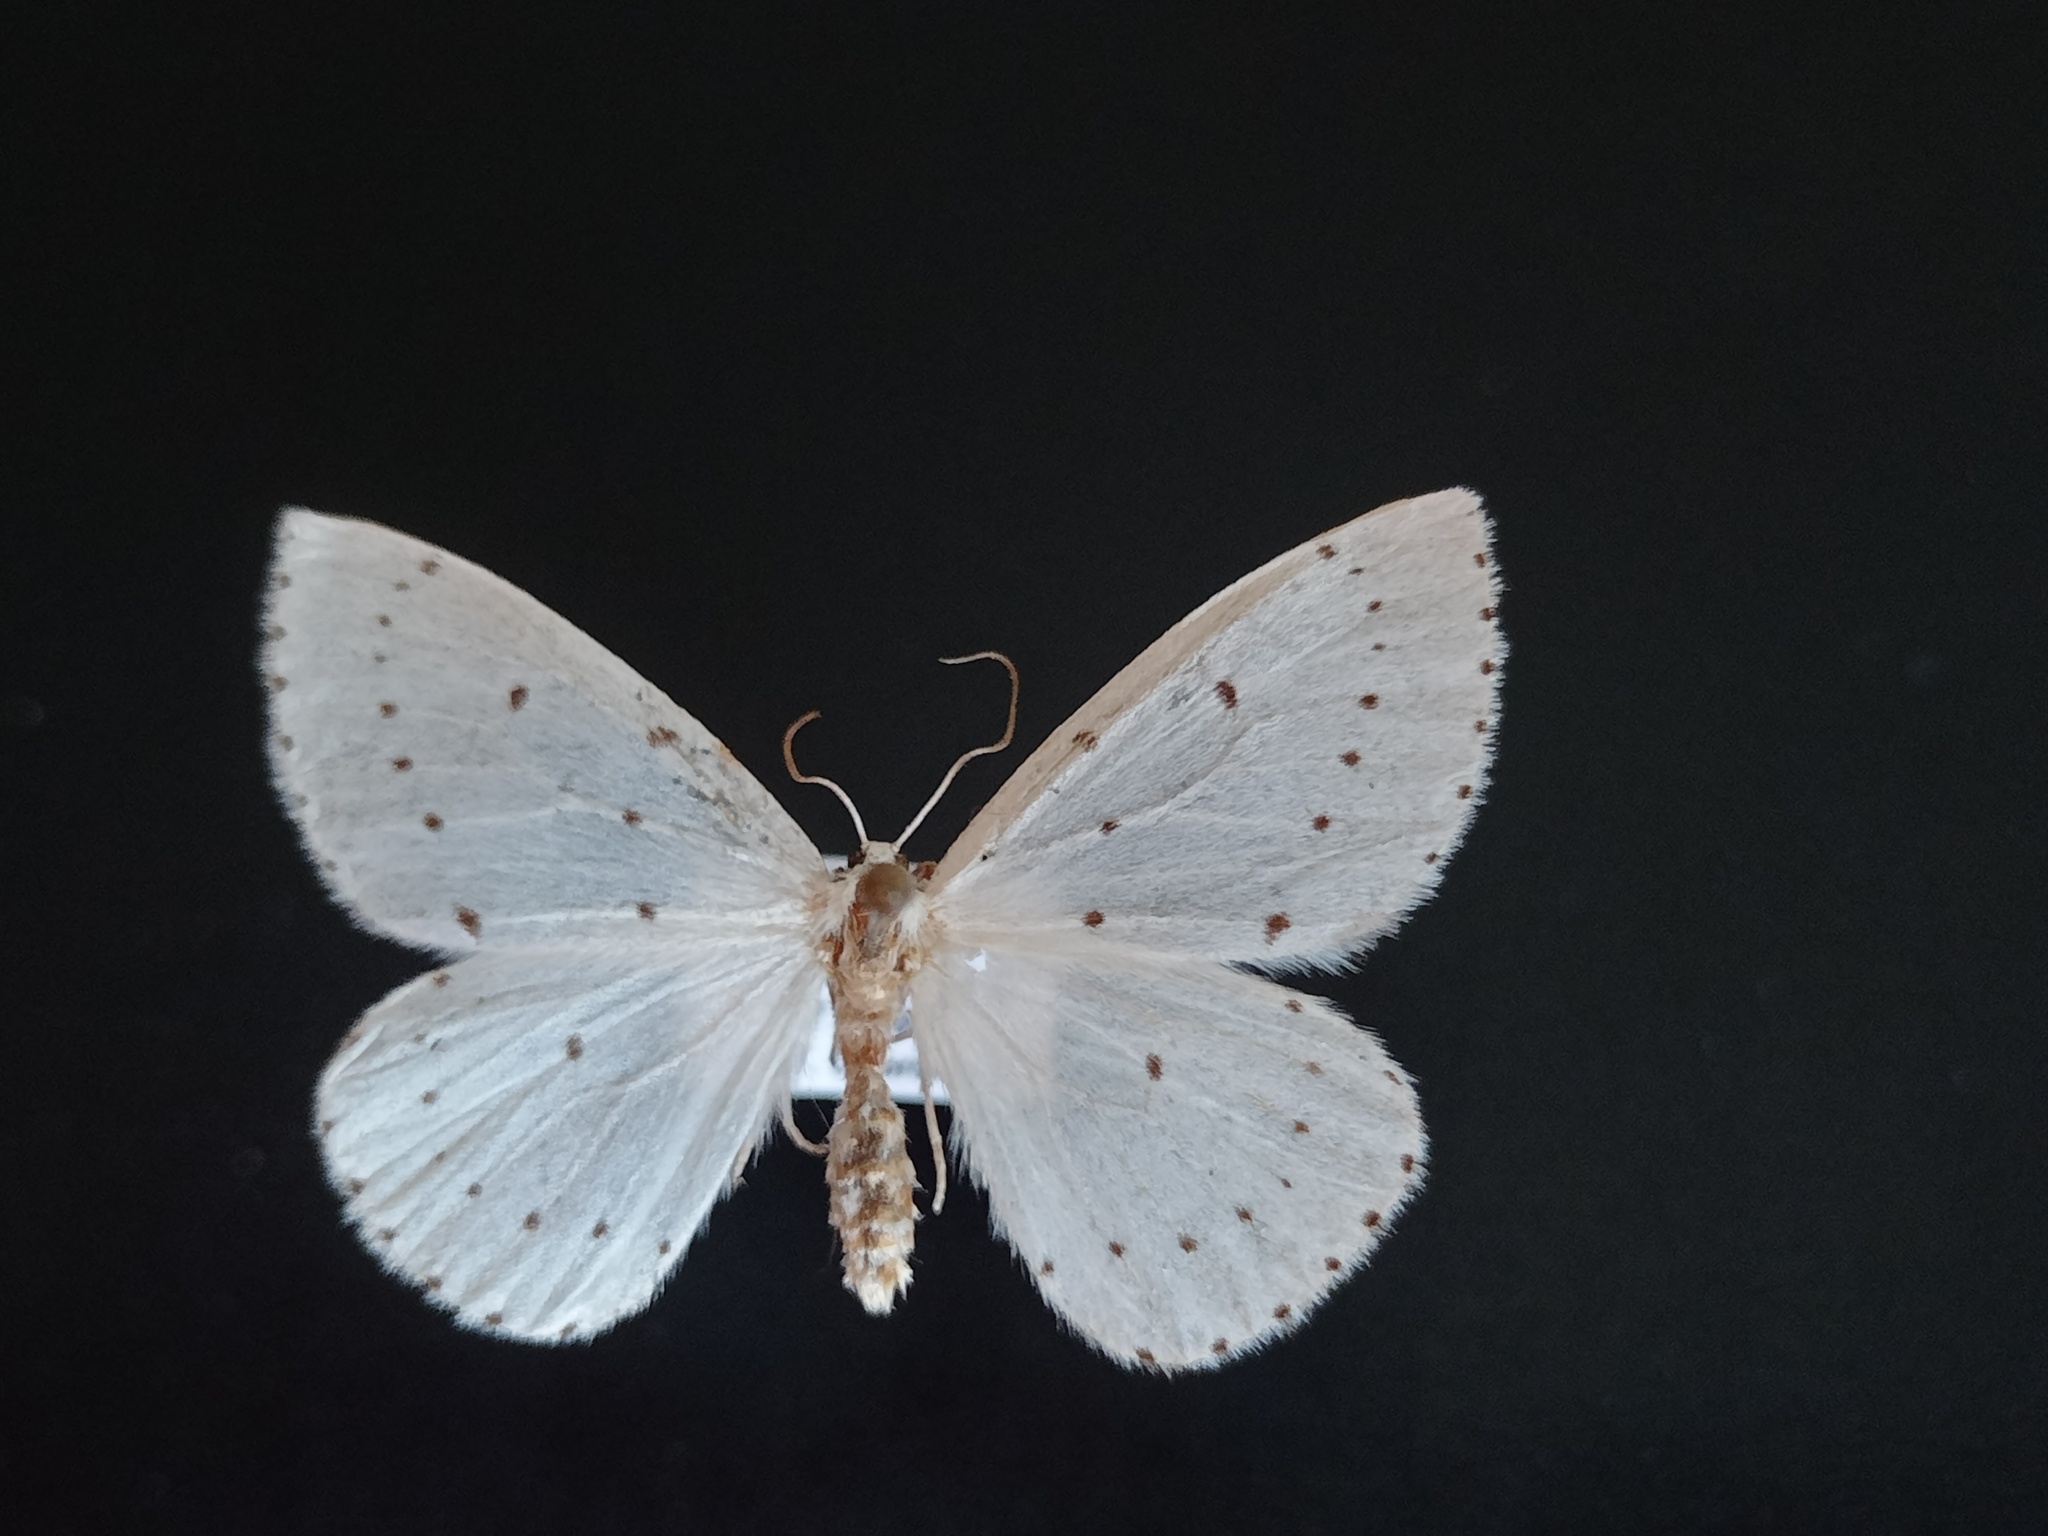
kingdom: Animalia
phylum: Arthropoda
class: Insecta
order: Lepidoptera
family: Geometridae
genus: Orthostixis
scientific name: Orthostixis cribraria
